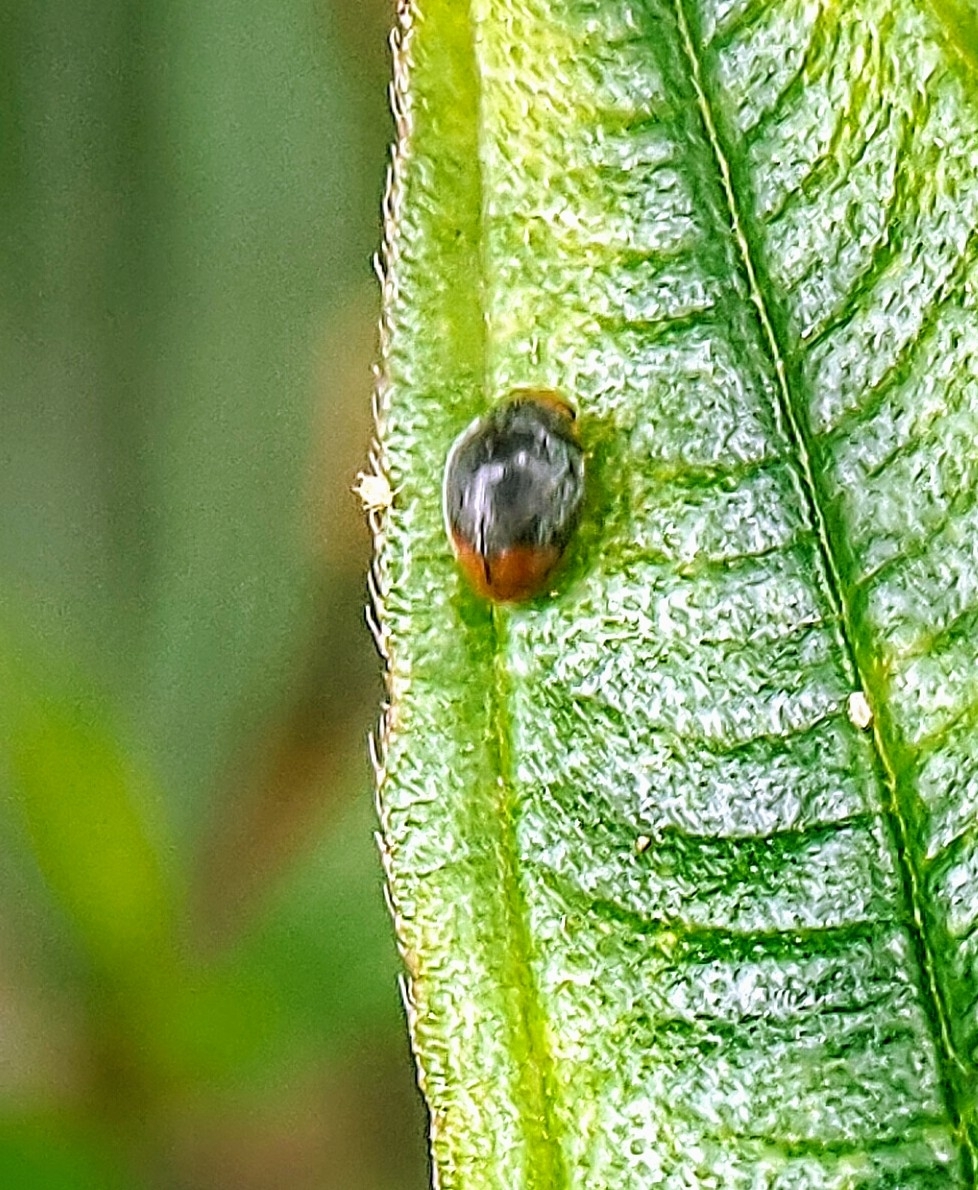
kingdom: Animalia
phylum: Arthropoda
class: Insecta
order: Coleoptera
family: Coccinellidae
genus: Cryptolaemus
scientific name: Cryptolaemus montrouzieri
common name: Mealybug destroyer
